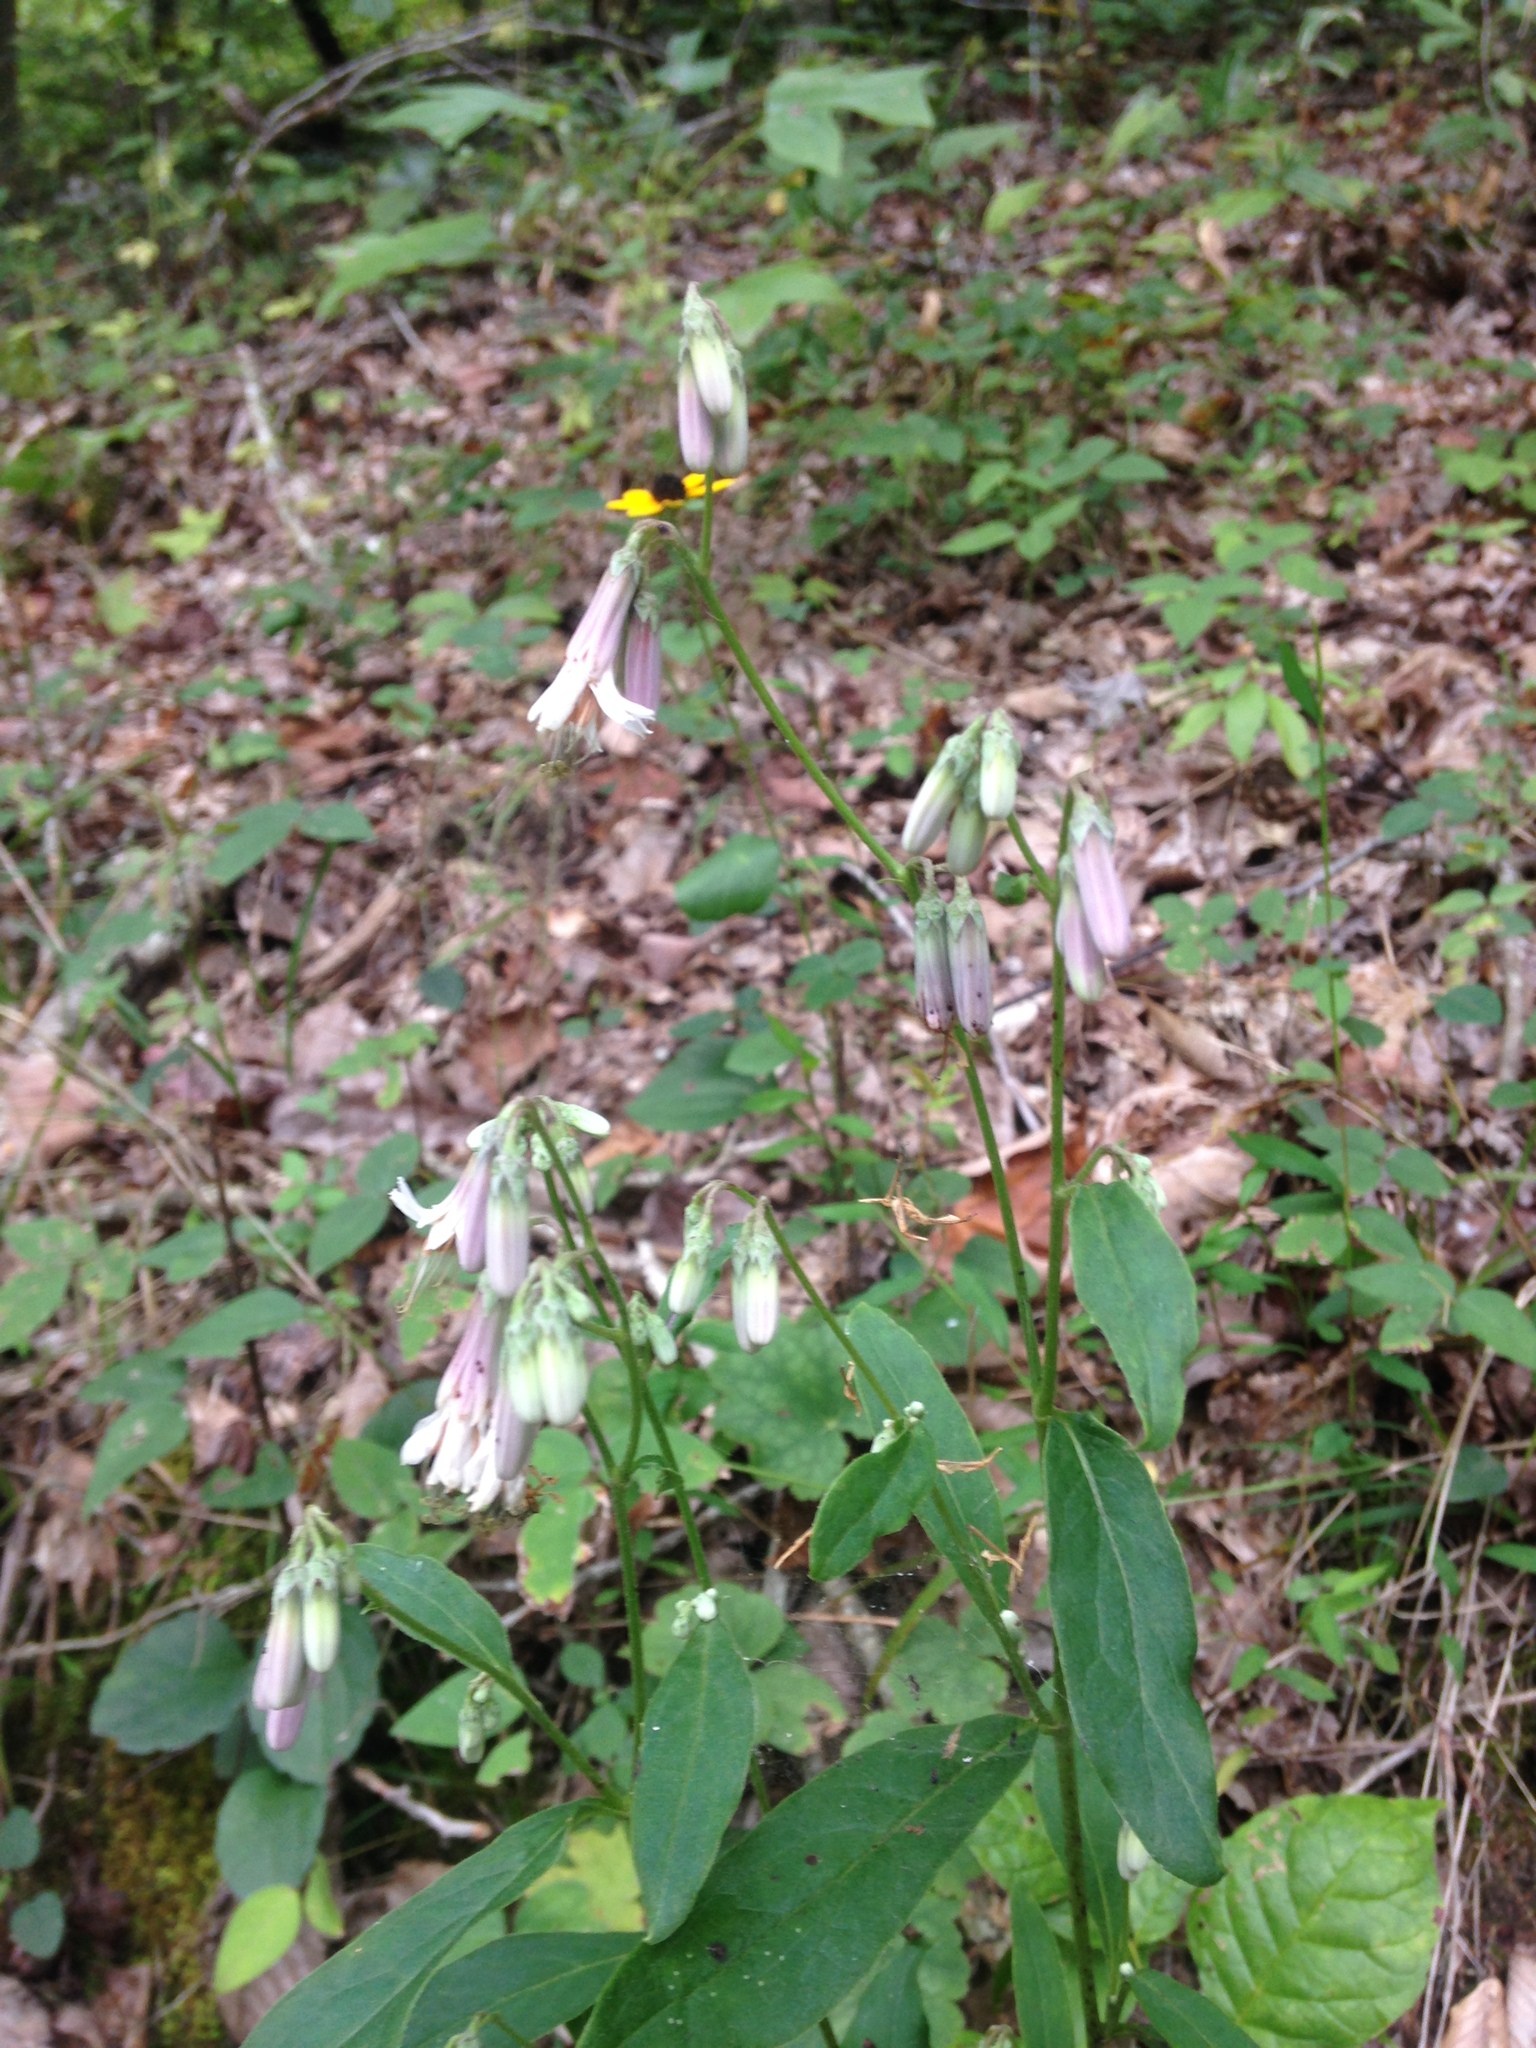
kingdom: Plantae
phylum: Tracheophyta
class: Magnoliopsida
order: Asterales
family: Asteraceae
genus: Nabalus
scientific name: Nabalus albus
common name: White rattlesnakeroot
